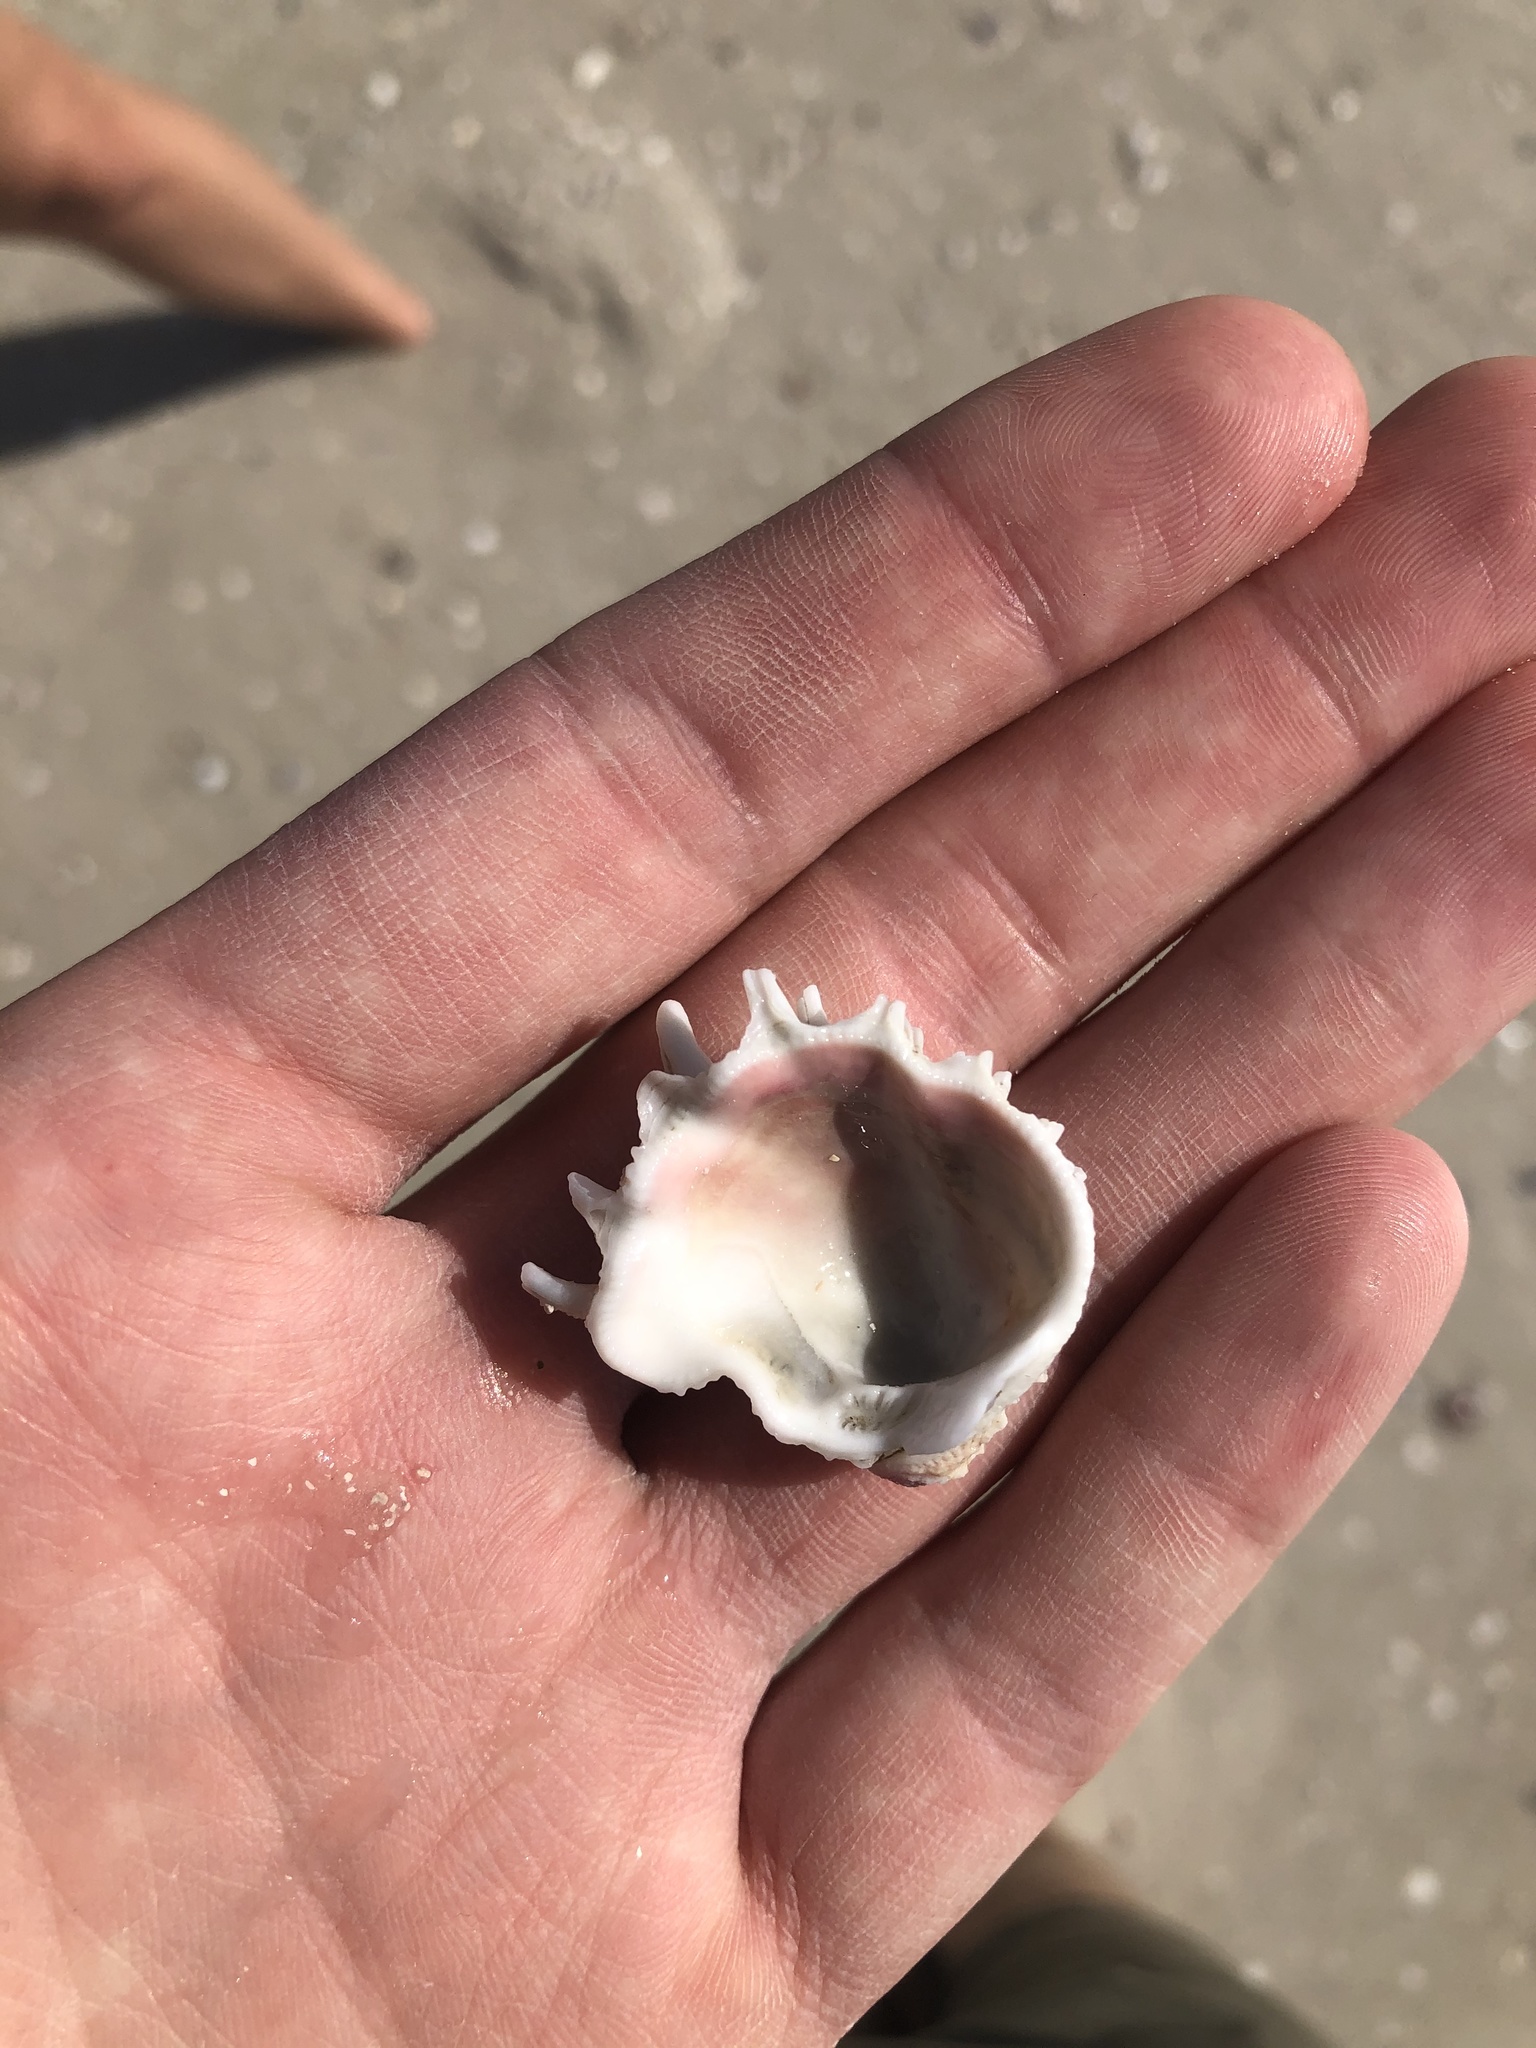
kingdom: Animalia
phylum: Mollusca
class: Bivalvia
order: Venerida
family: Chamidae
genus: Arcinella
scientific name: Arcinella cornuta
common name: Florida spiny jewel box
